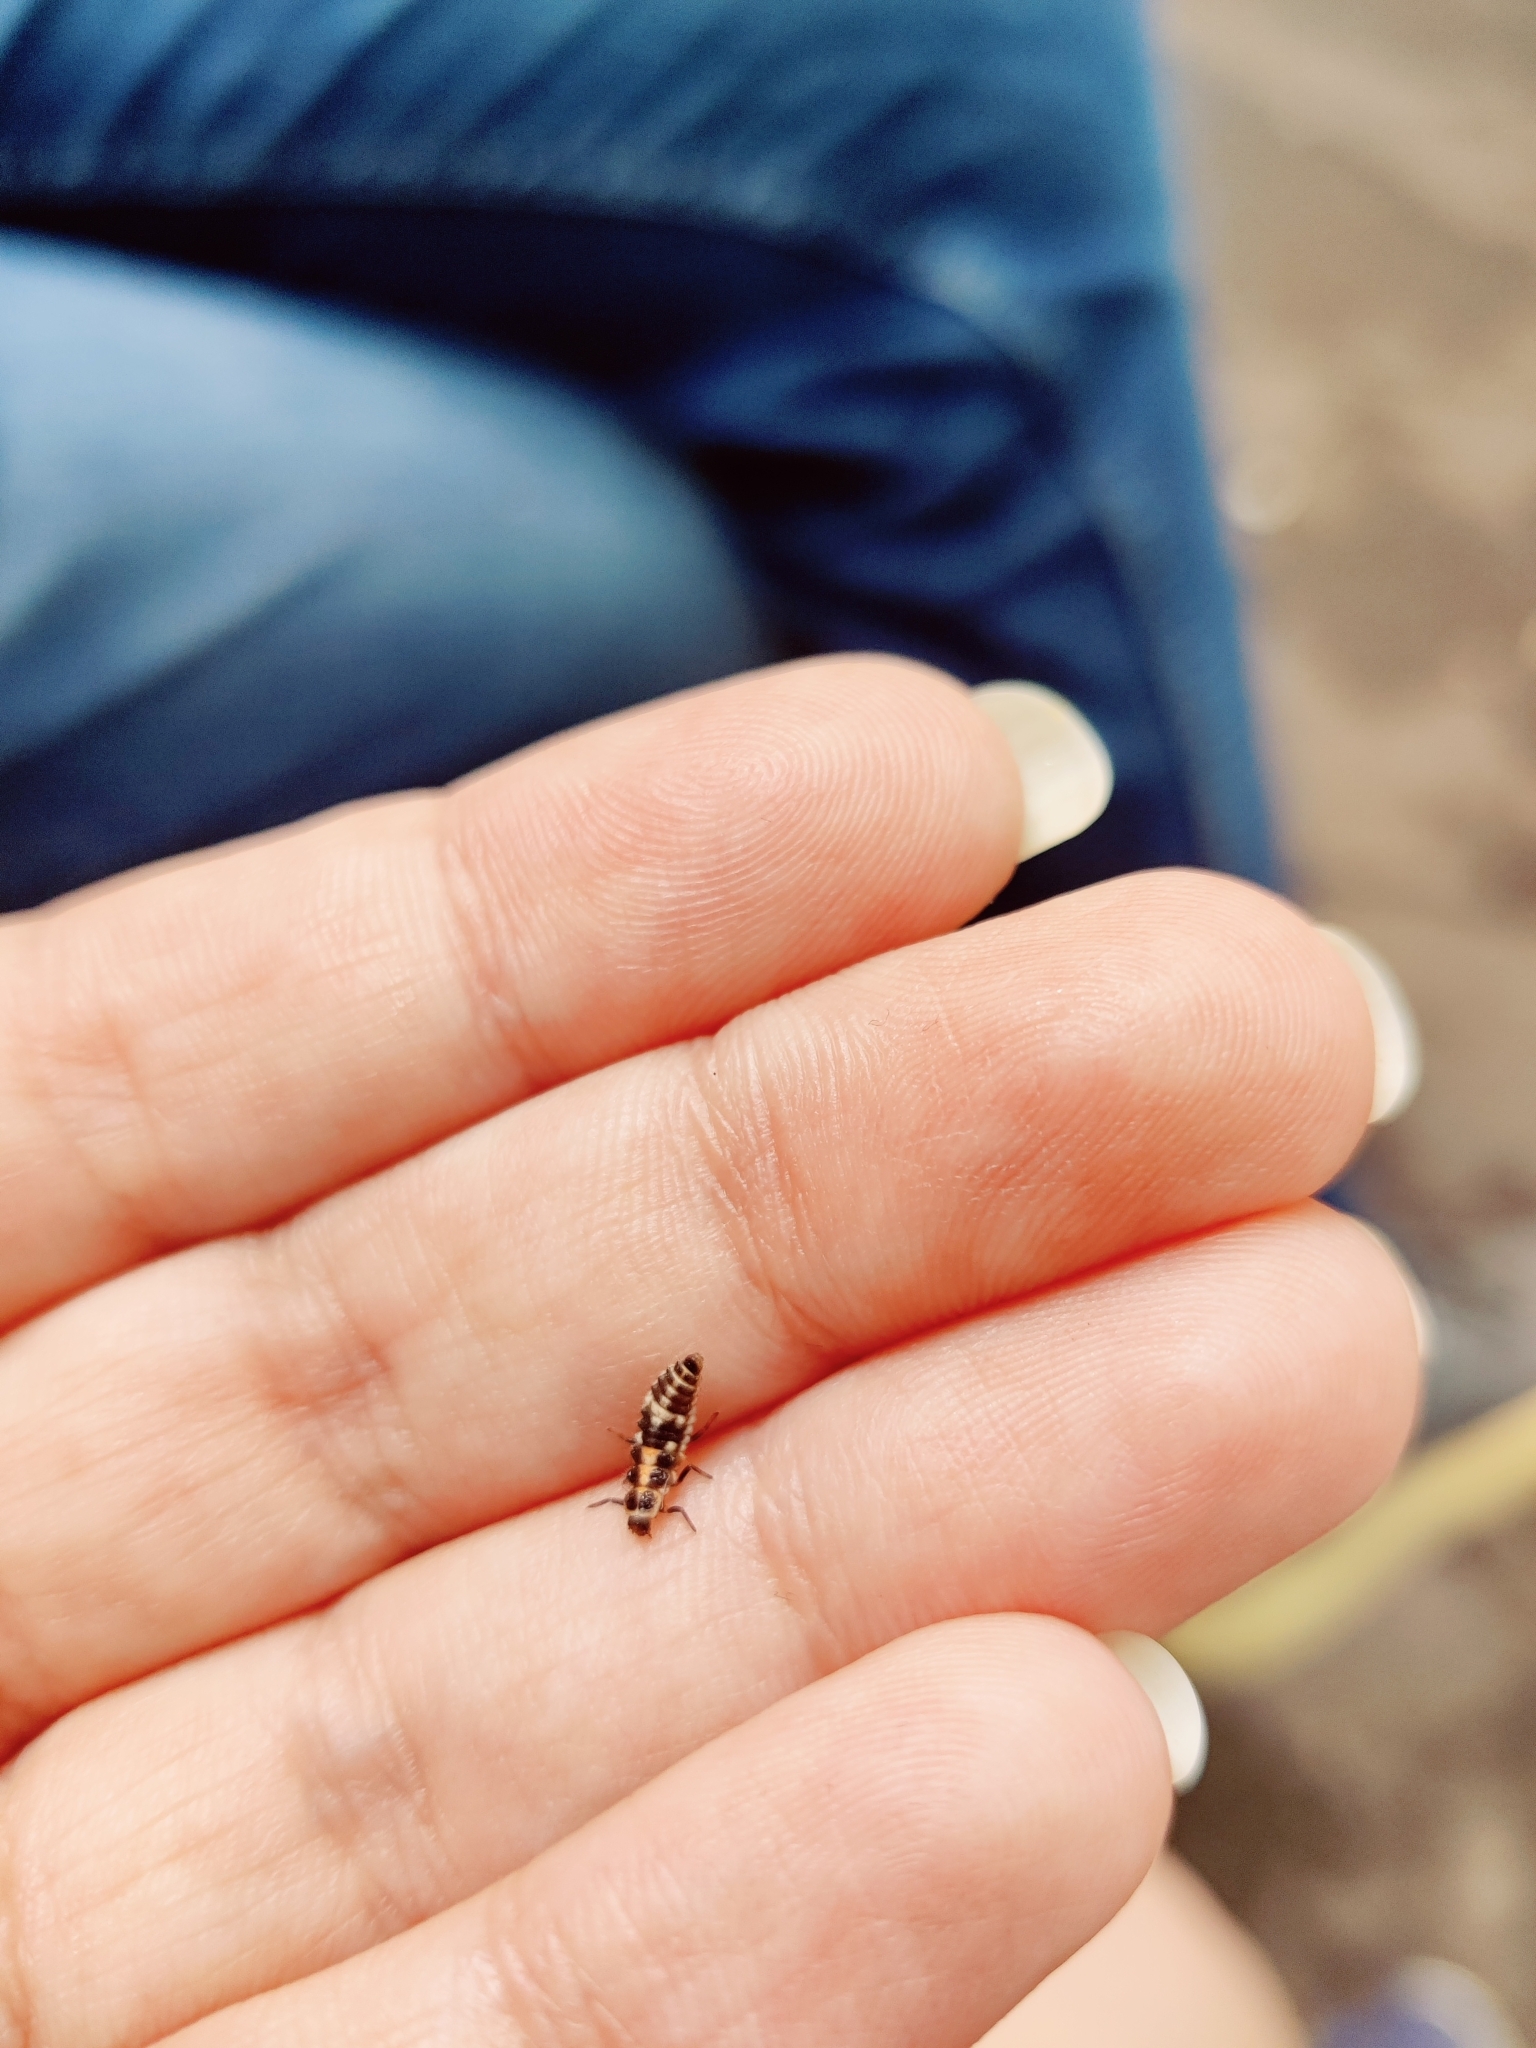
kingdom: Animalia
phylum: Arthropoda
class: Insecta
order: Coleoptera
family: Coccinellidae
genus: Oenopia
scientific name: Oenopia conglobata
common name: Ladybird beetle
